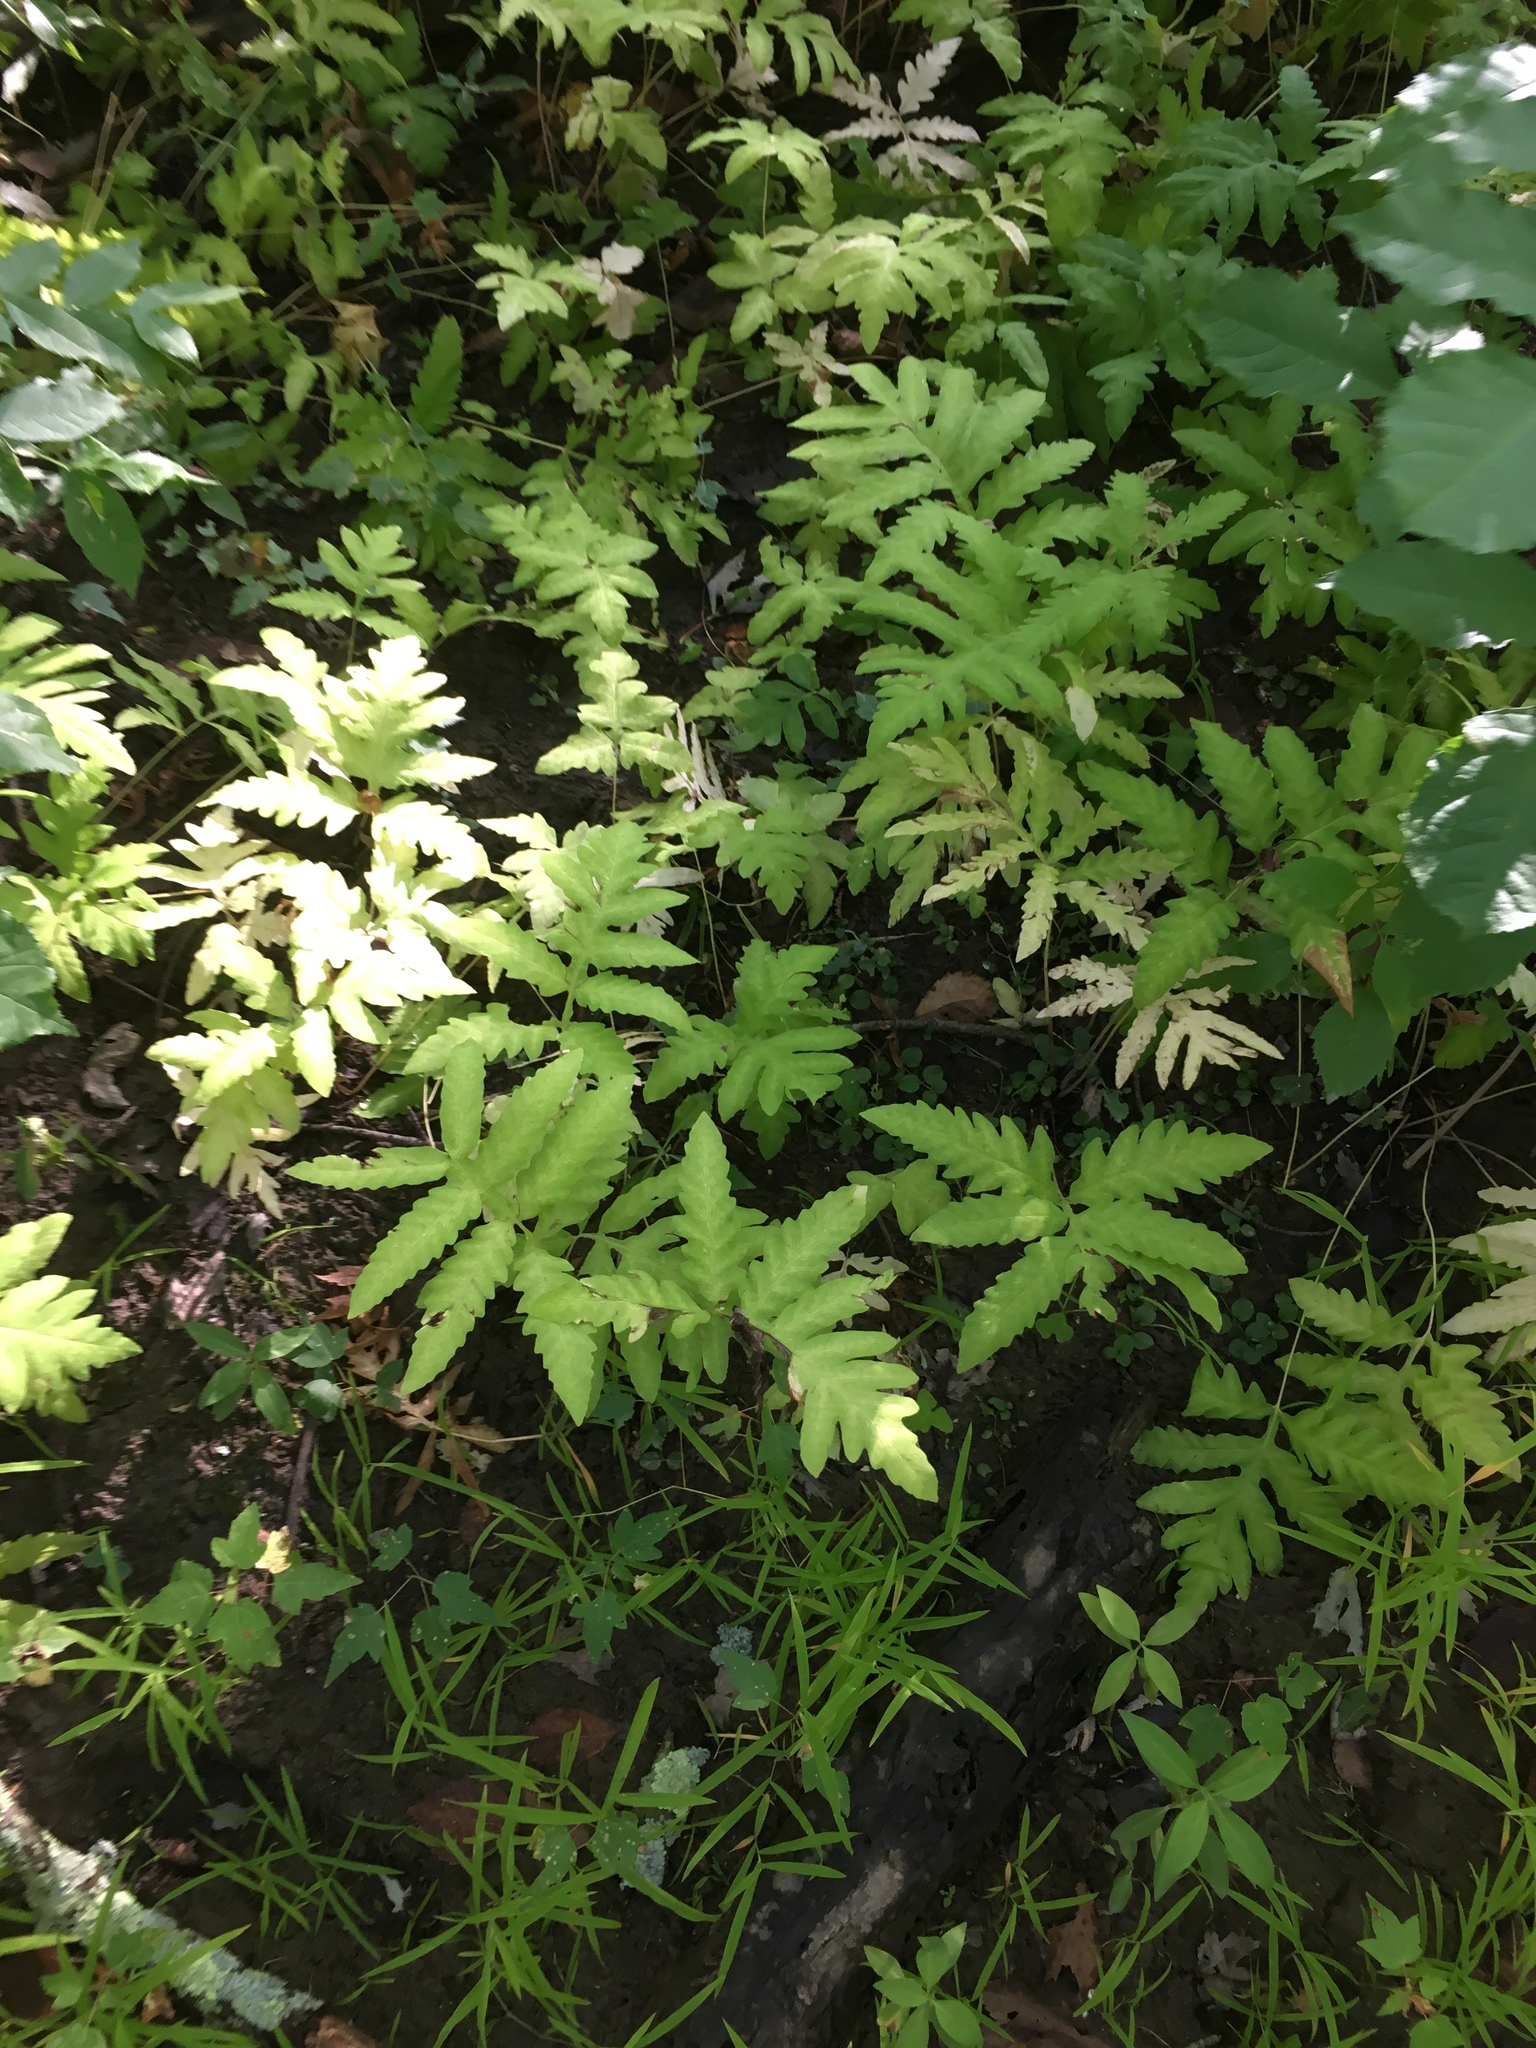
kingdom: Plantae
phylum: Tracheophyta
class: Polypodiopsida
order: Polypodiales
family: Onocleaceae
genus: Onoclea
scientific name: Onoclea sensibilis
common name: Sensitive fern
